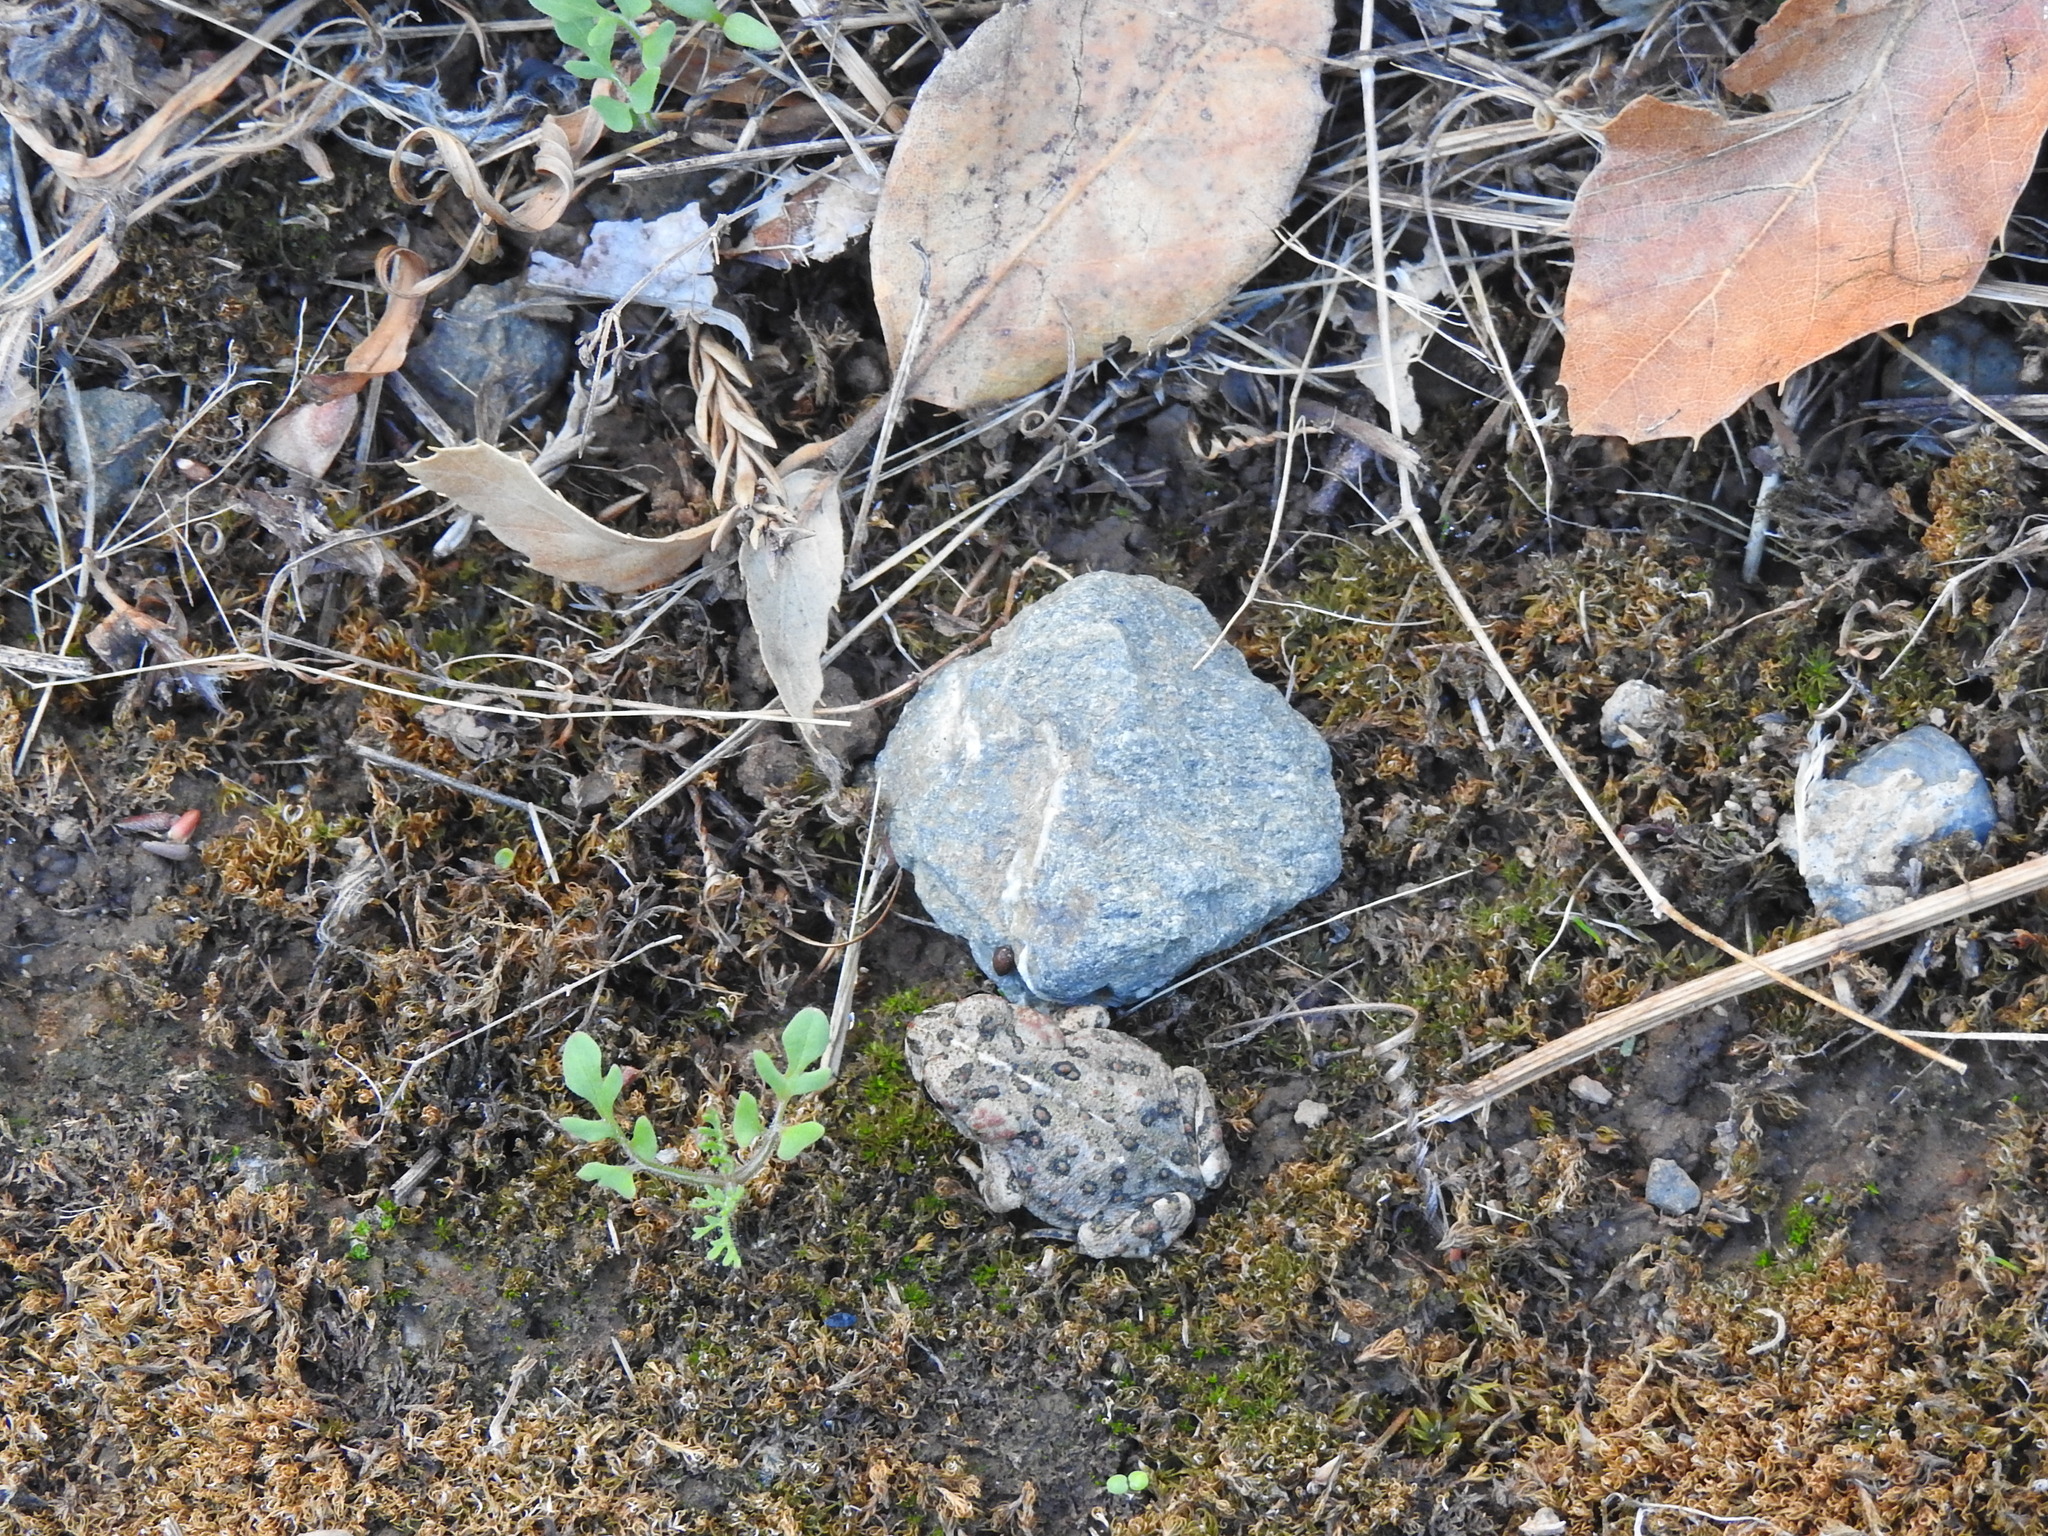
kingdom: Animalia
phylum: Chordata
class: Amphibia
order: Anura
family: Bufonidae
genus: Anaxyrus
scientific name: Anaxyrus boreas
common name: Western toad
